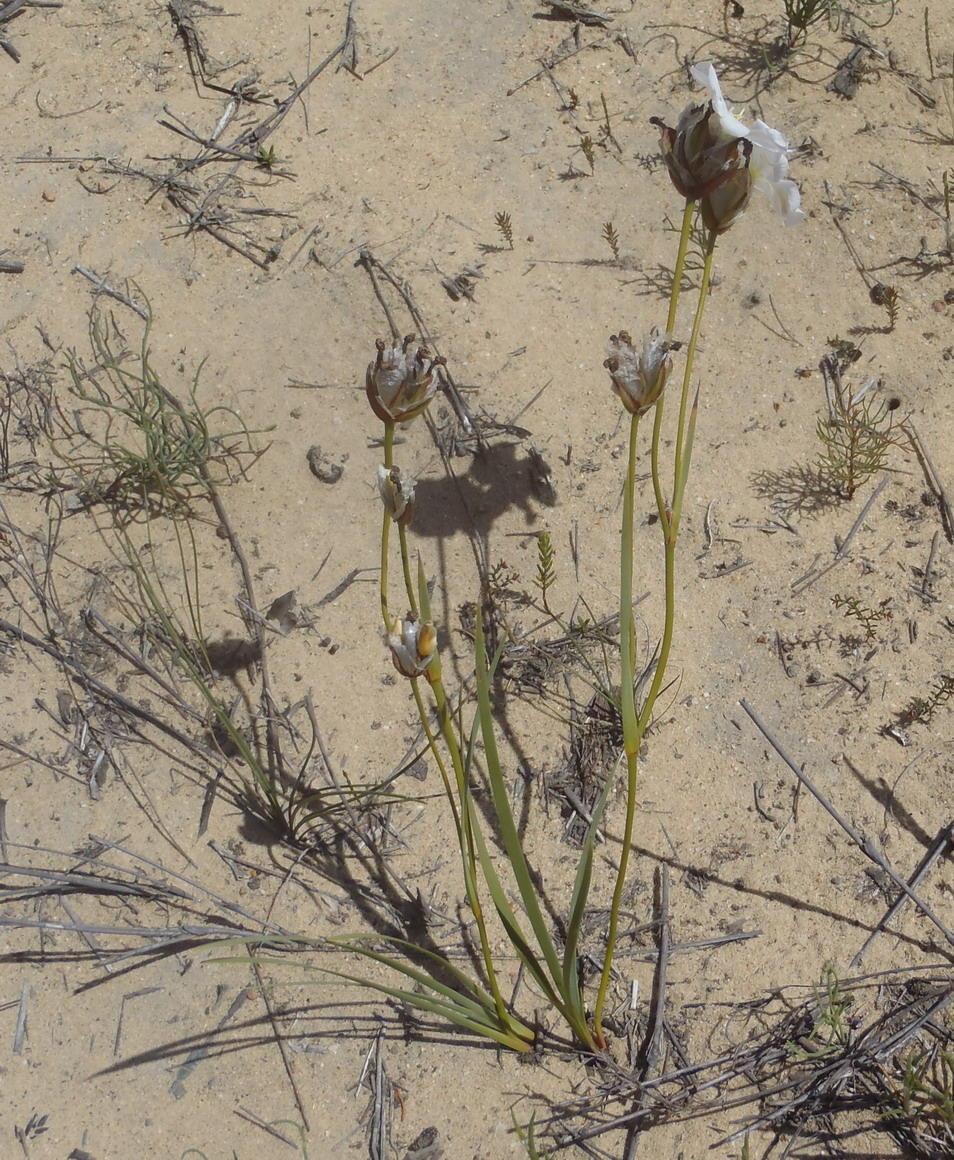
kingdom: Plantae
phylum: Tracheophyta
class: Liliopsida
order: Asparagales
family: Iridaceae
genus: Aristea
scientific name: Aristea oligocephala
